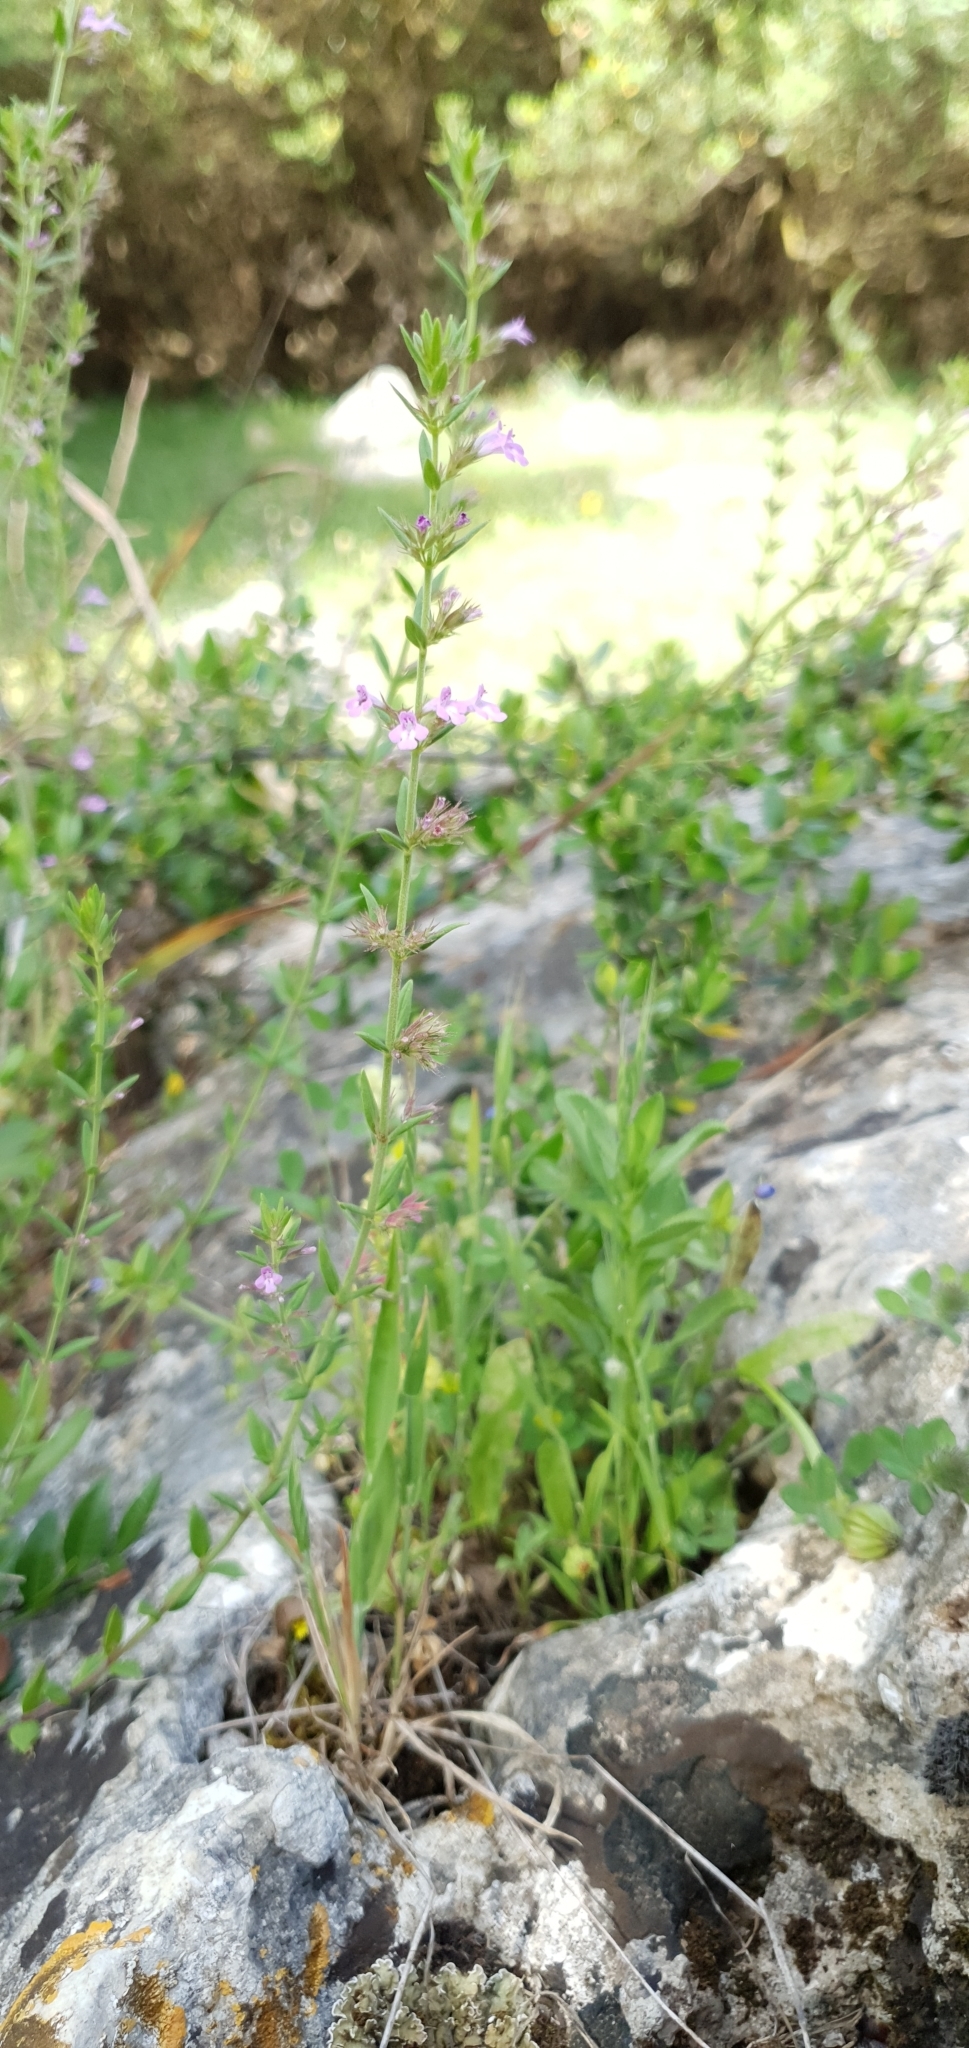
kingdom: Plantae
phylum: Tracheophyta
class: Magnoliopsida
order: Lamiales
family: Lamiaceae
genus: Micromeria
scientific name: Micromeria graeca
